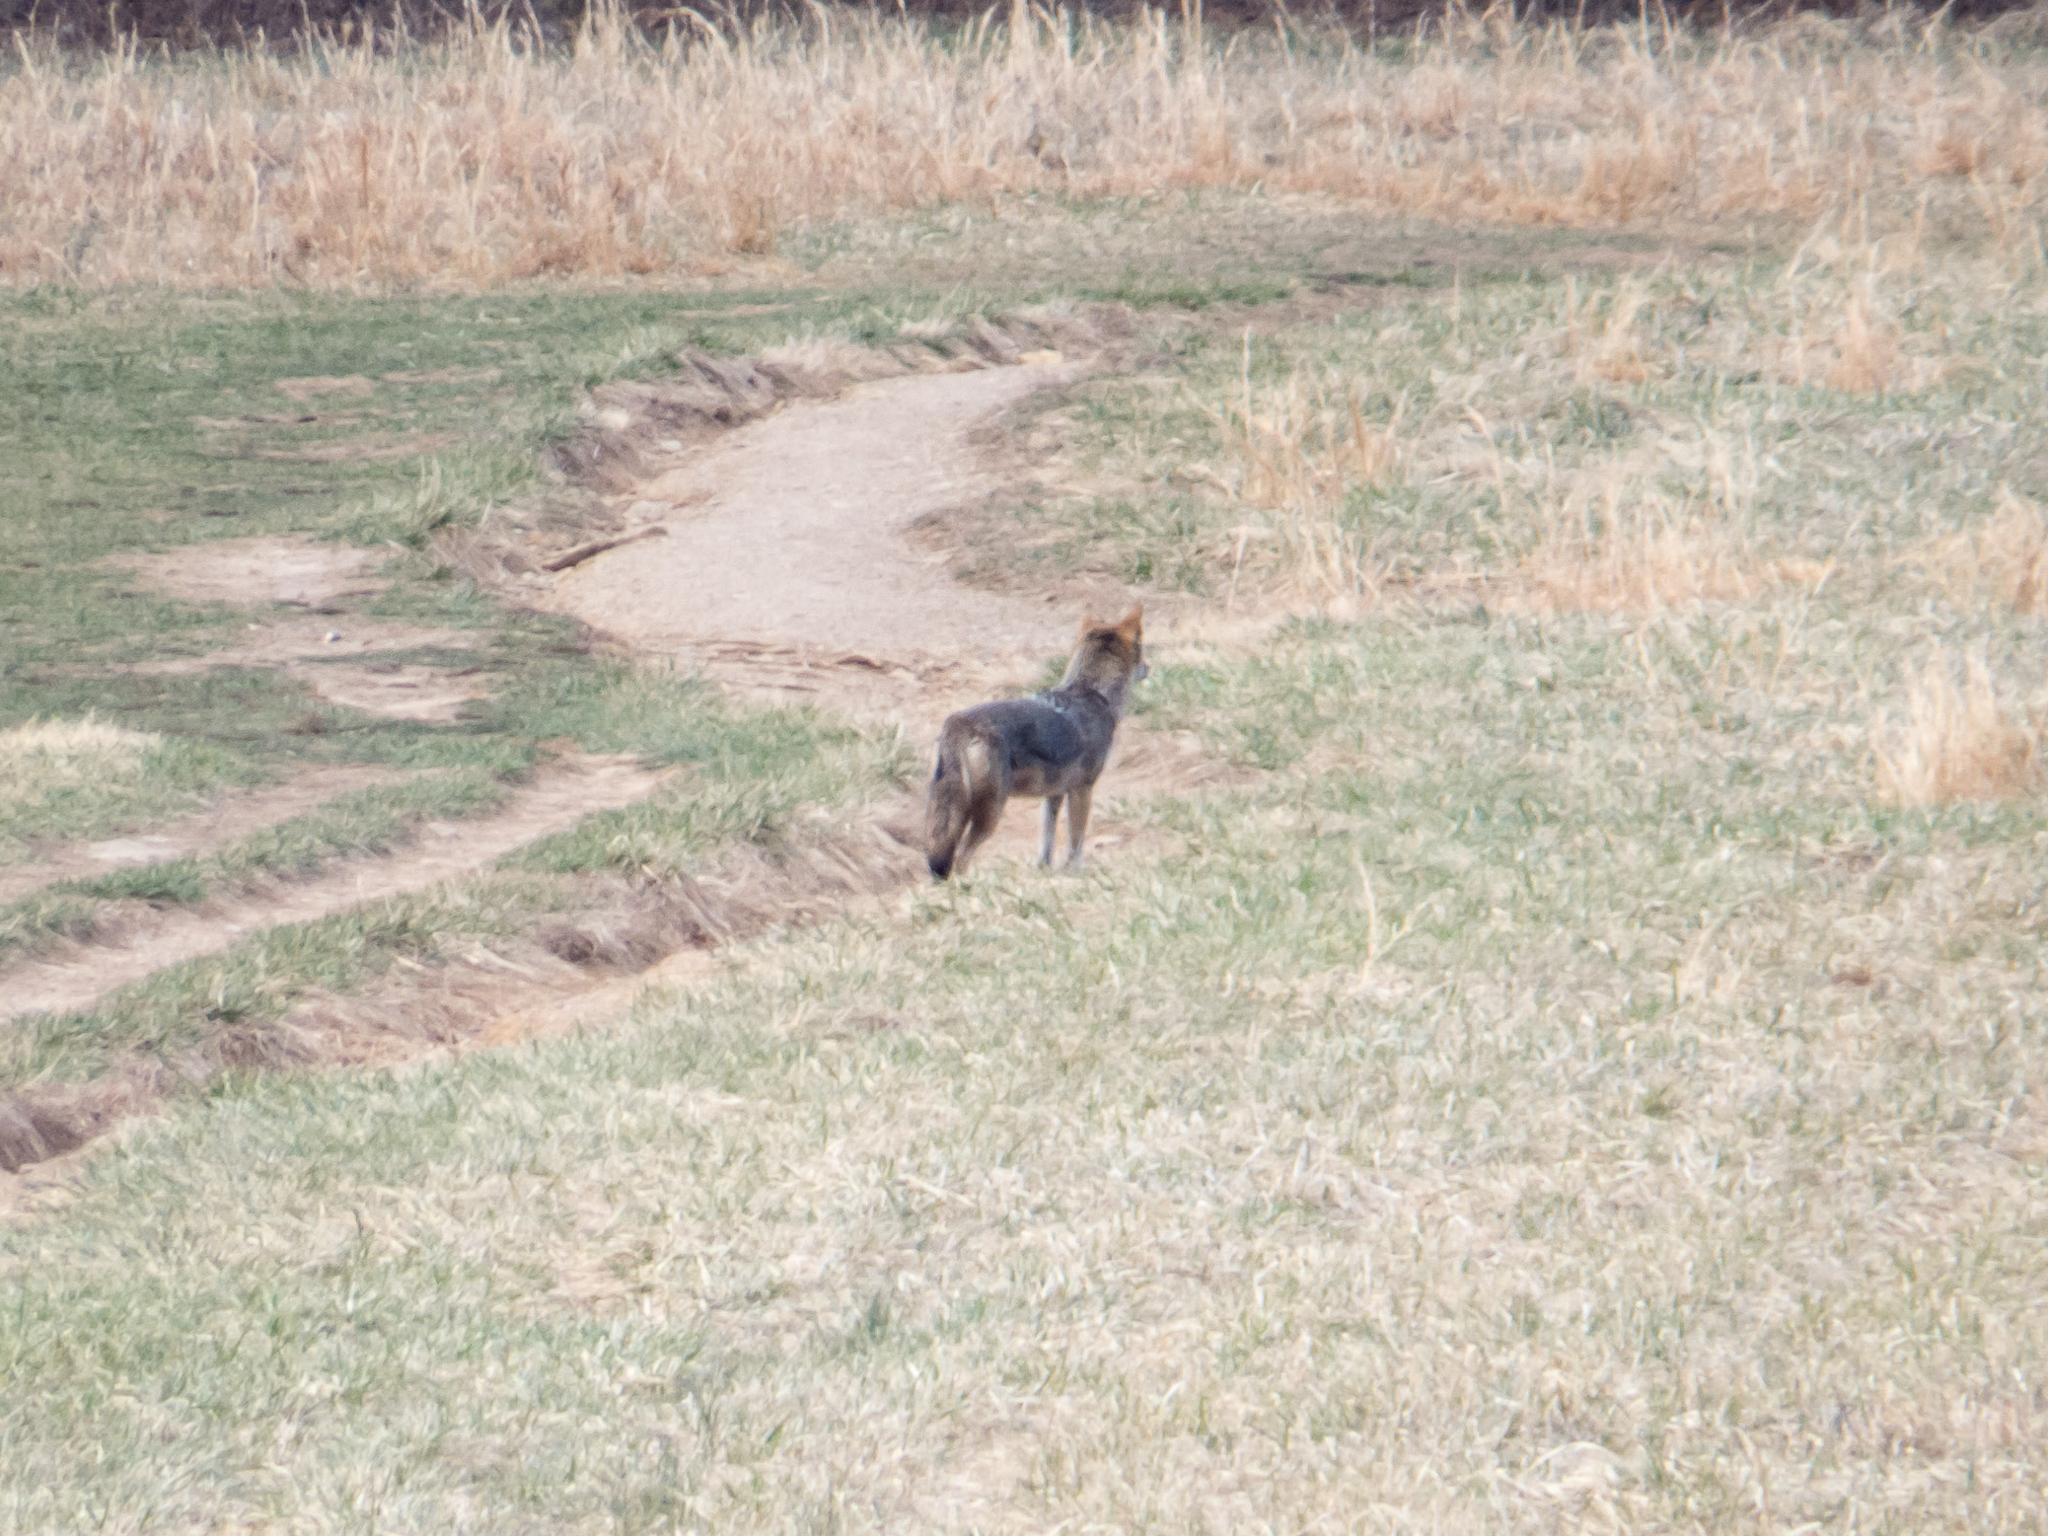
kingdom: Animalia
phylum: Chordata
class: Mammalia
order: Carnivora
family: Canidae
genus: Canis
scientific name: Canis latrans
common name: Coyote
